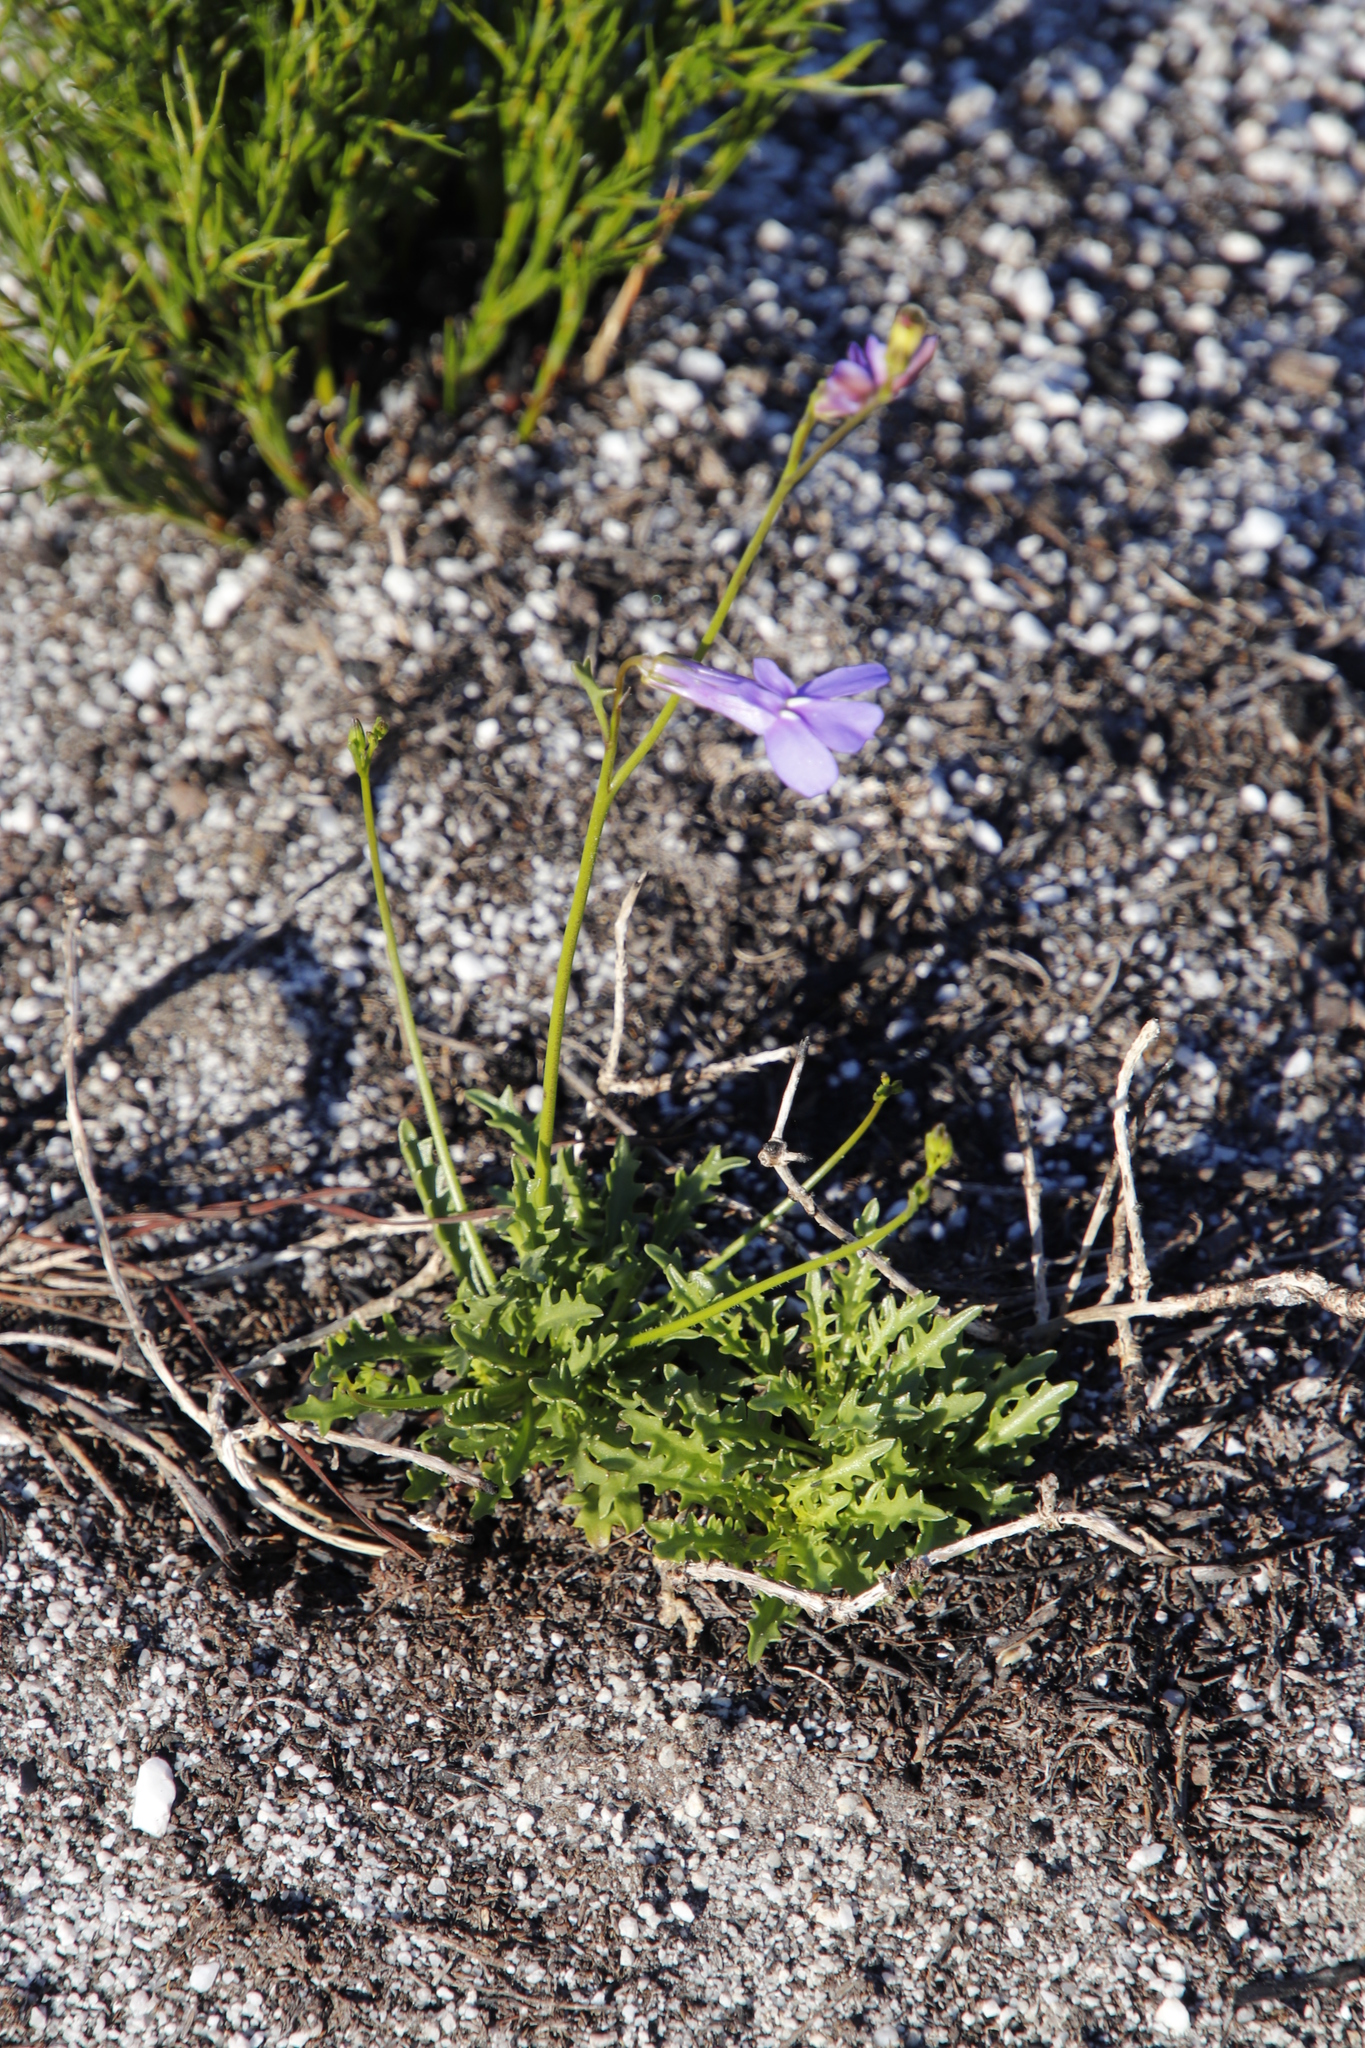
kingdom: Plantae
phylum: Tracheophyta
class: Magnoliopsida
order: Asterales
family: Campanulaceae
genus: Lobelia
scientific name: Lobelia coronopifolia
